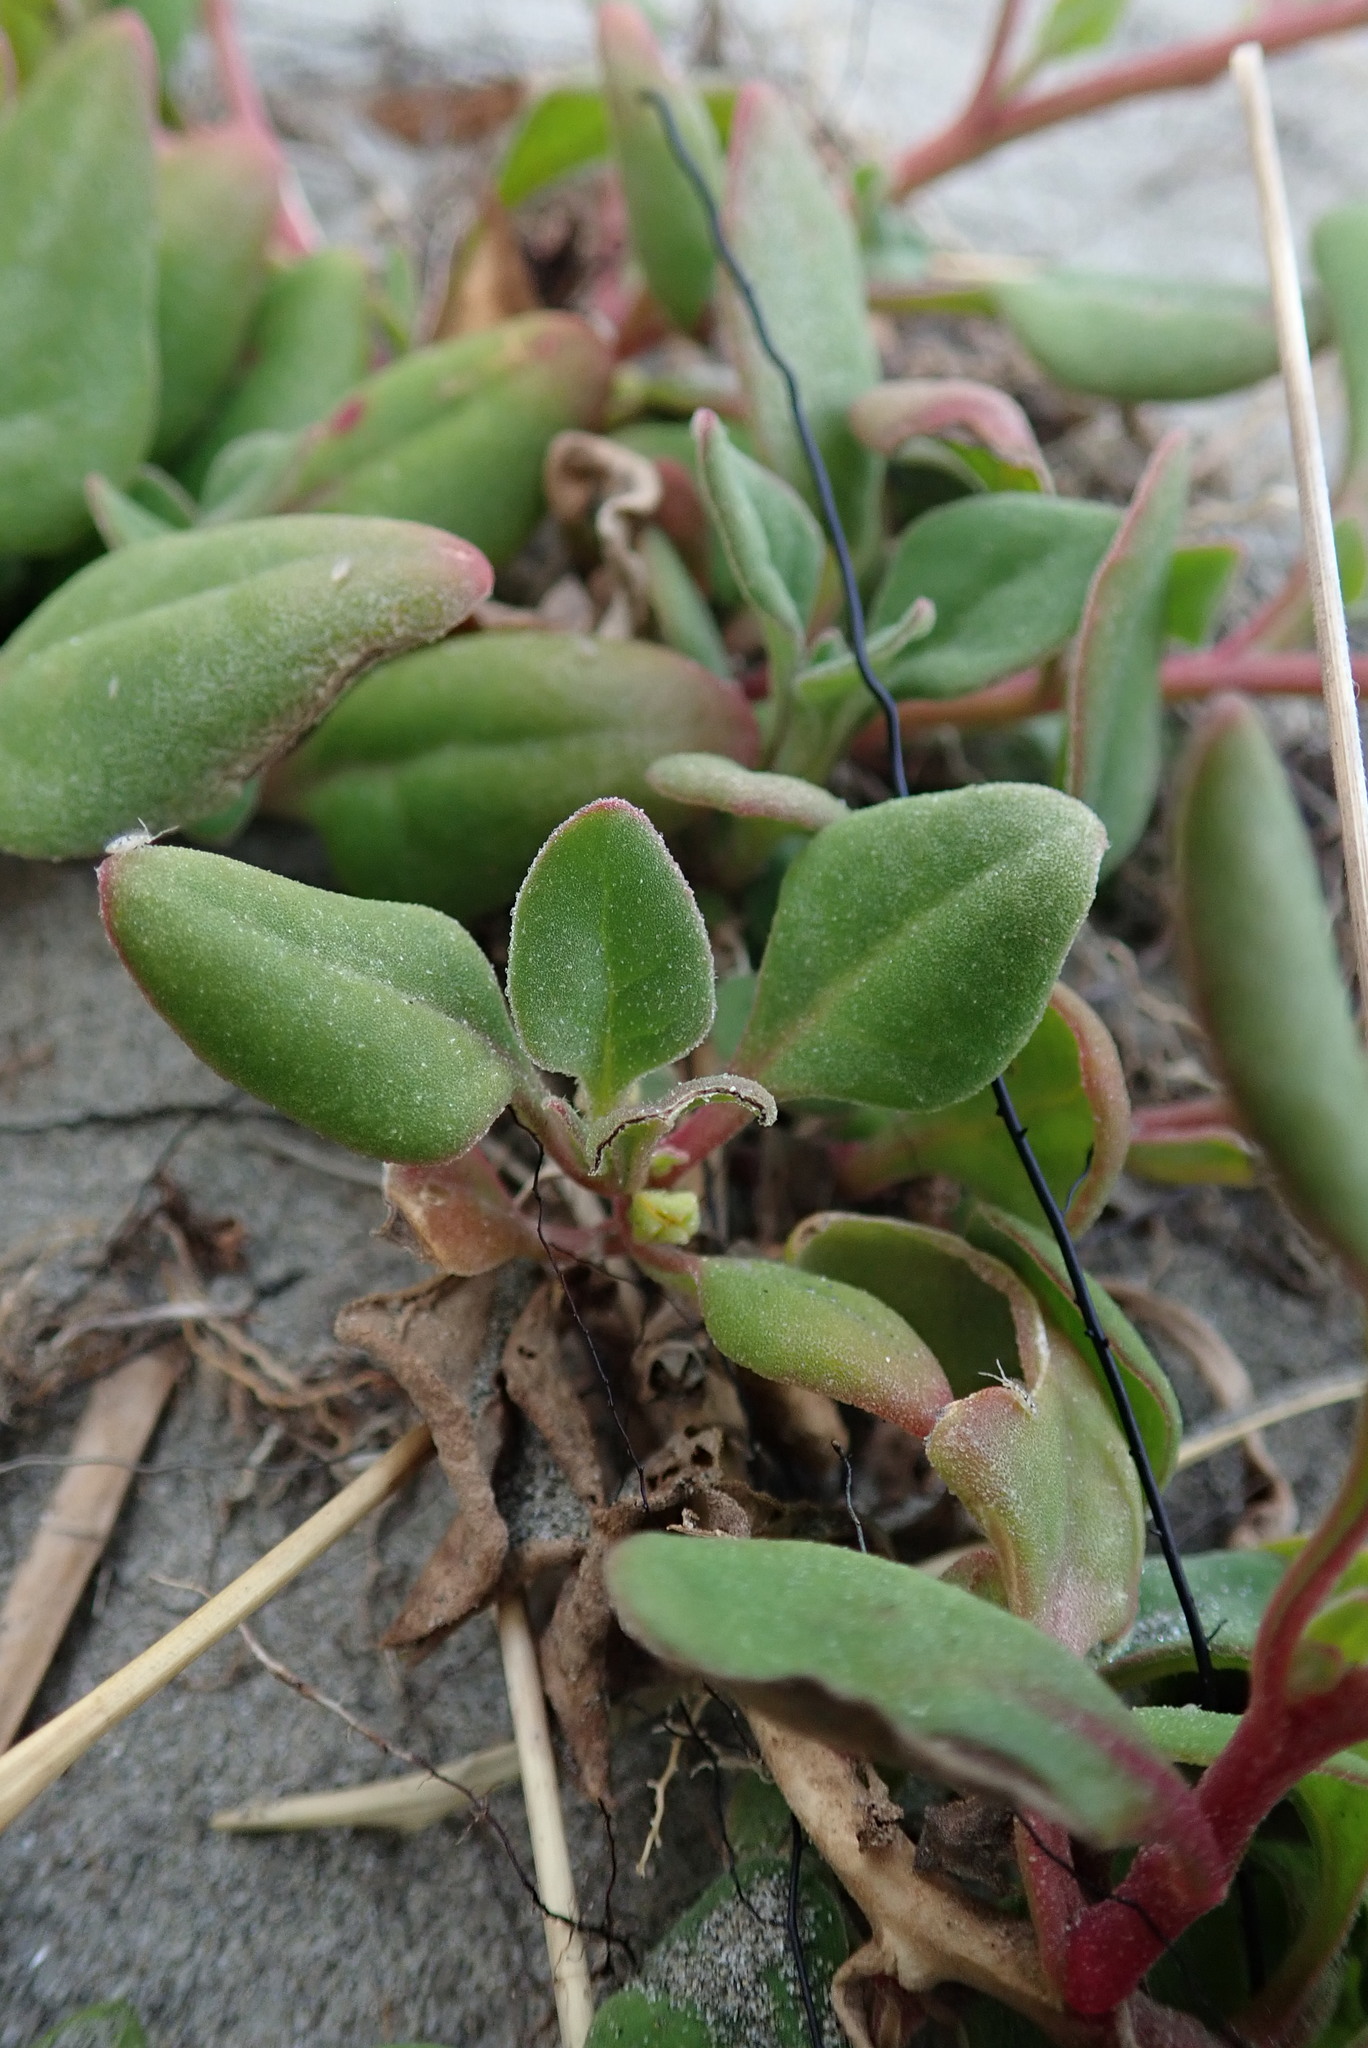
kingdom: Plantae
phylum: Tracheophyta
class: Magnoliopsida
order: Caryophyllales
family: Aizoaceae
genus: Tetragonia
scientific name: Tetragonia implexicoma
